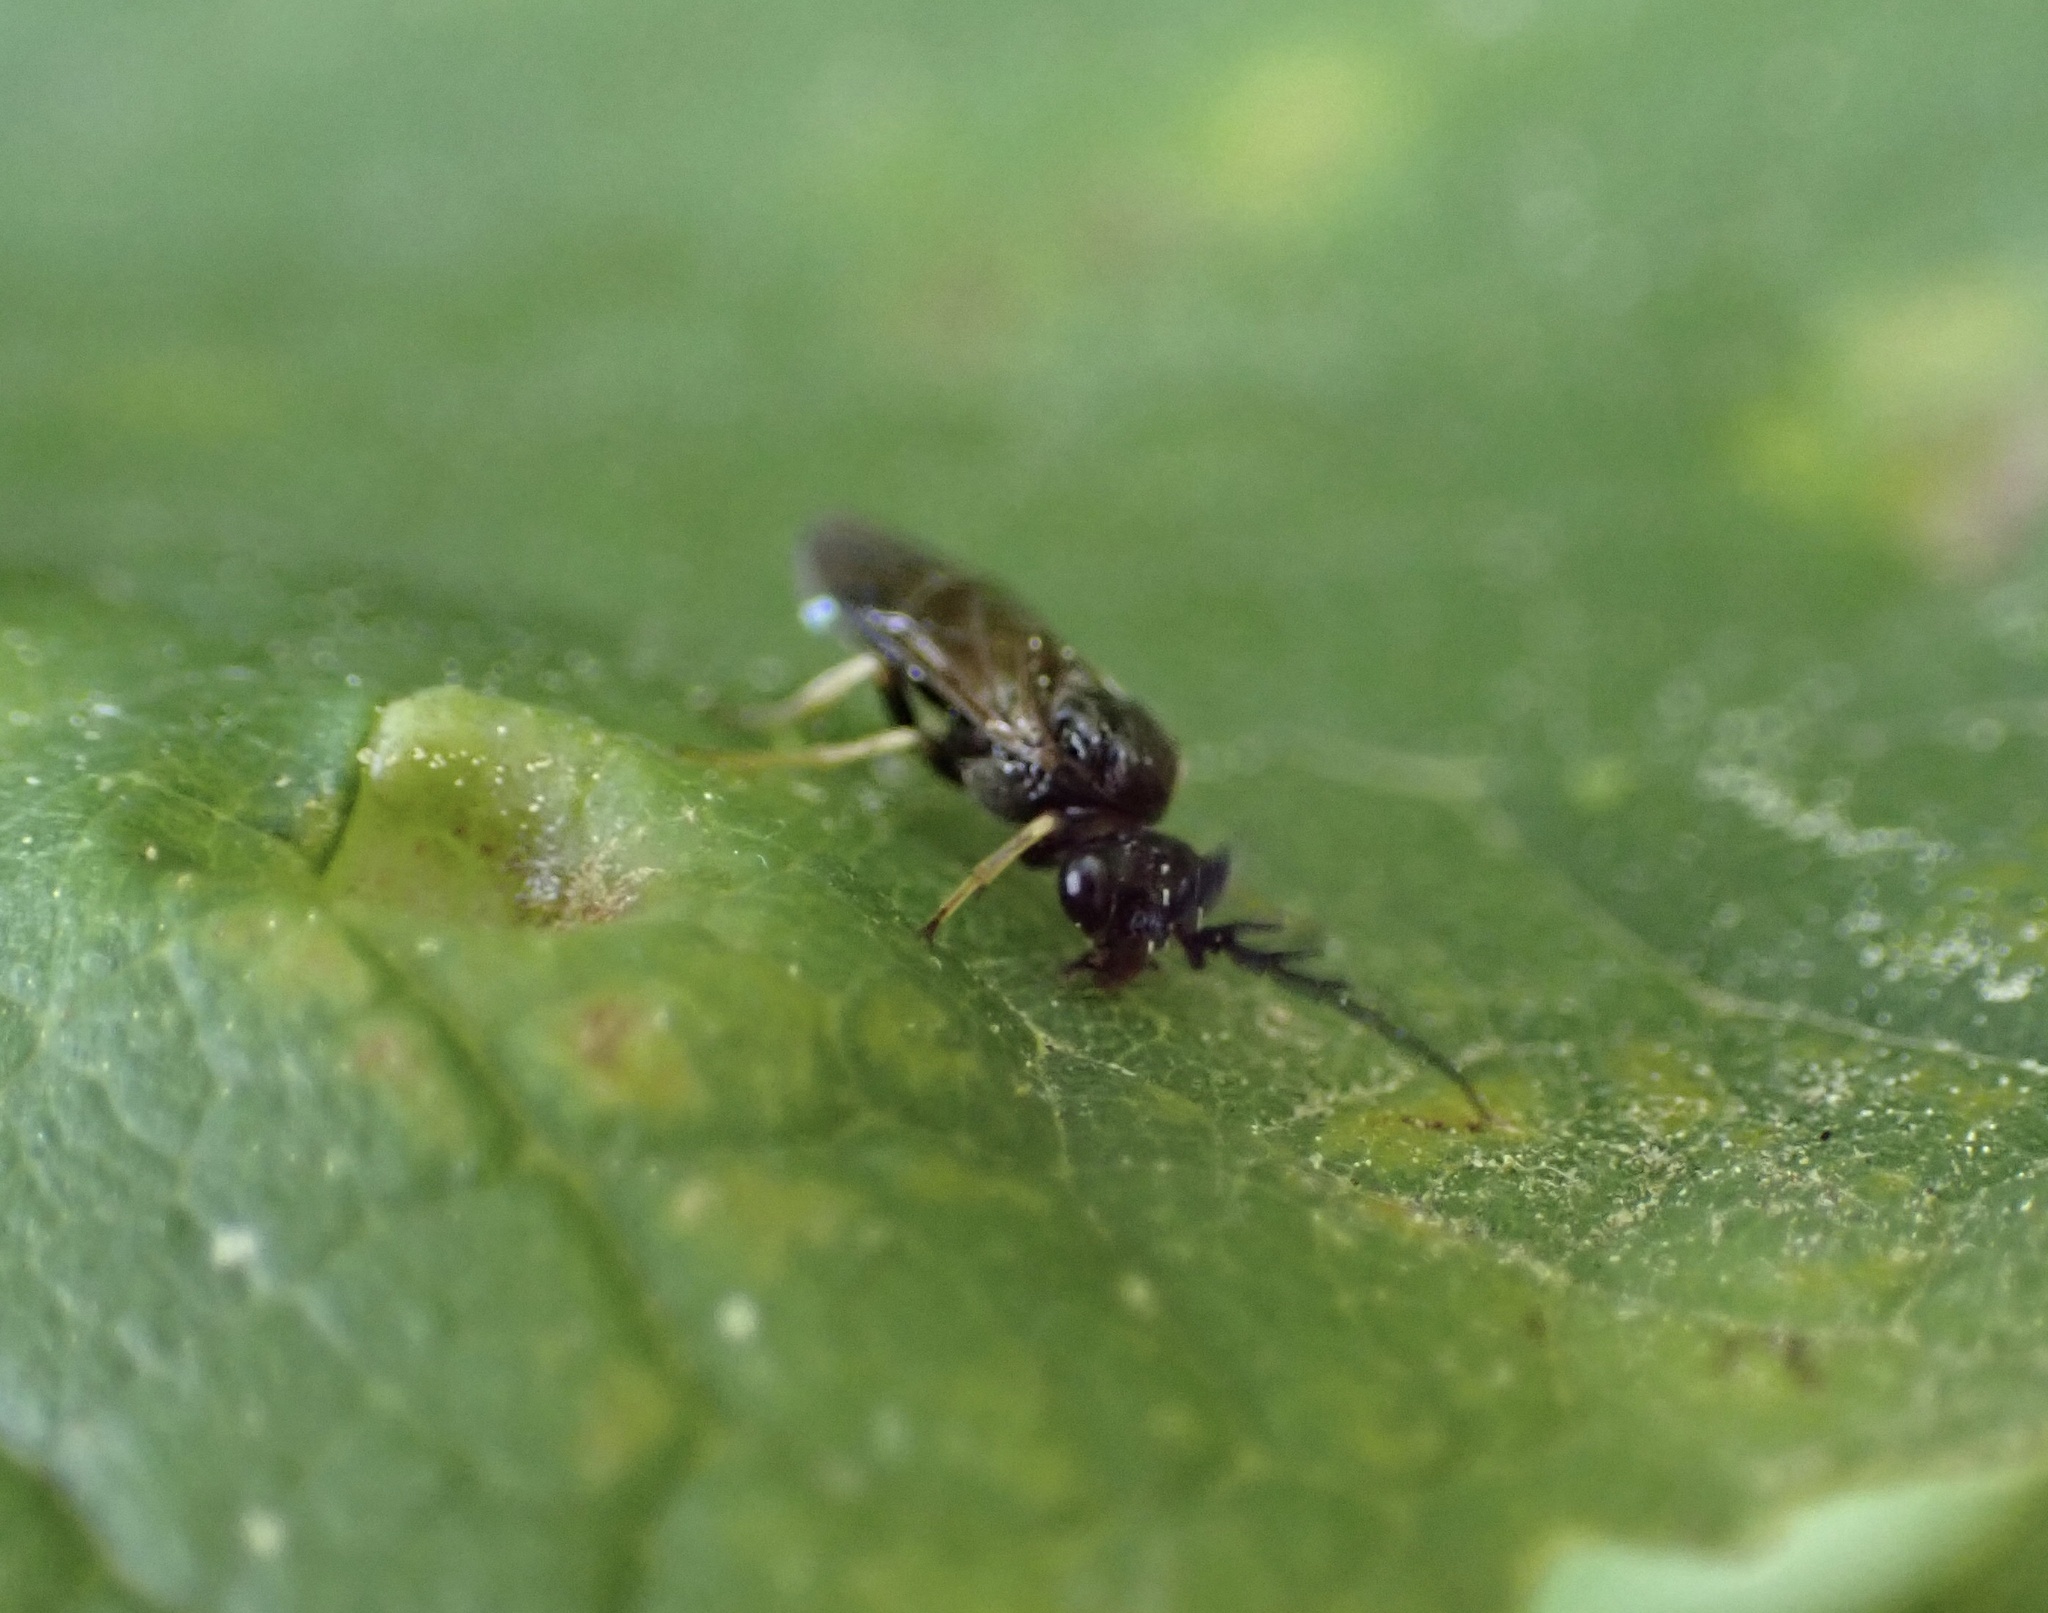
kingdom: Animalia
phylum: Arthropoda
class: Insecta
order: Hymenoptera
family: Tenthredinidae
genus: Cladius
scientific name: Cladius pectinicornis
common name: Sawfly
